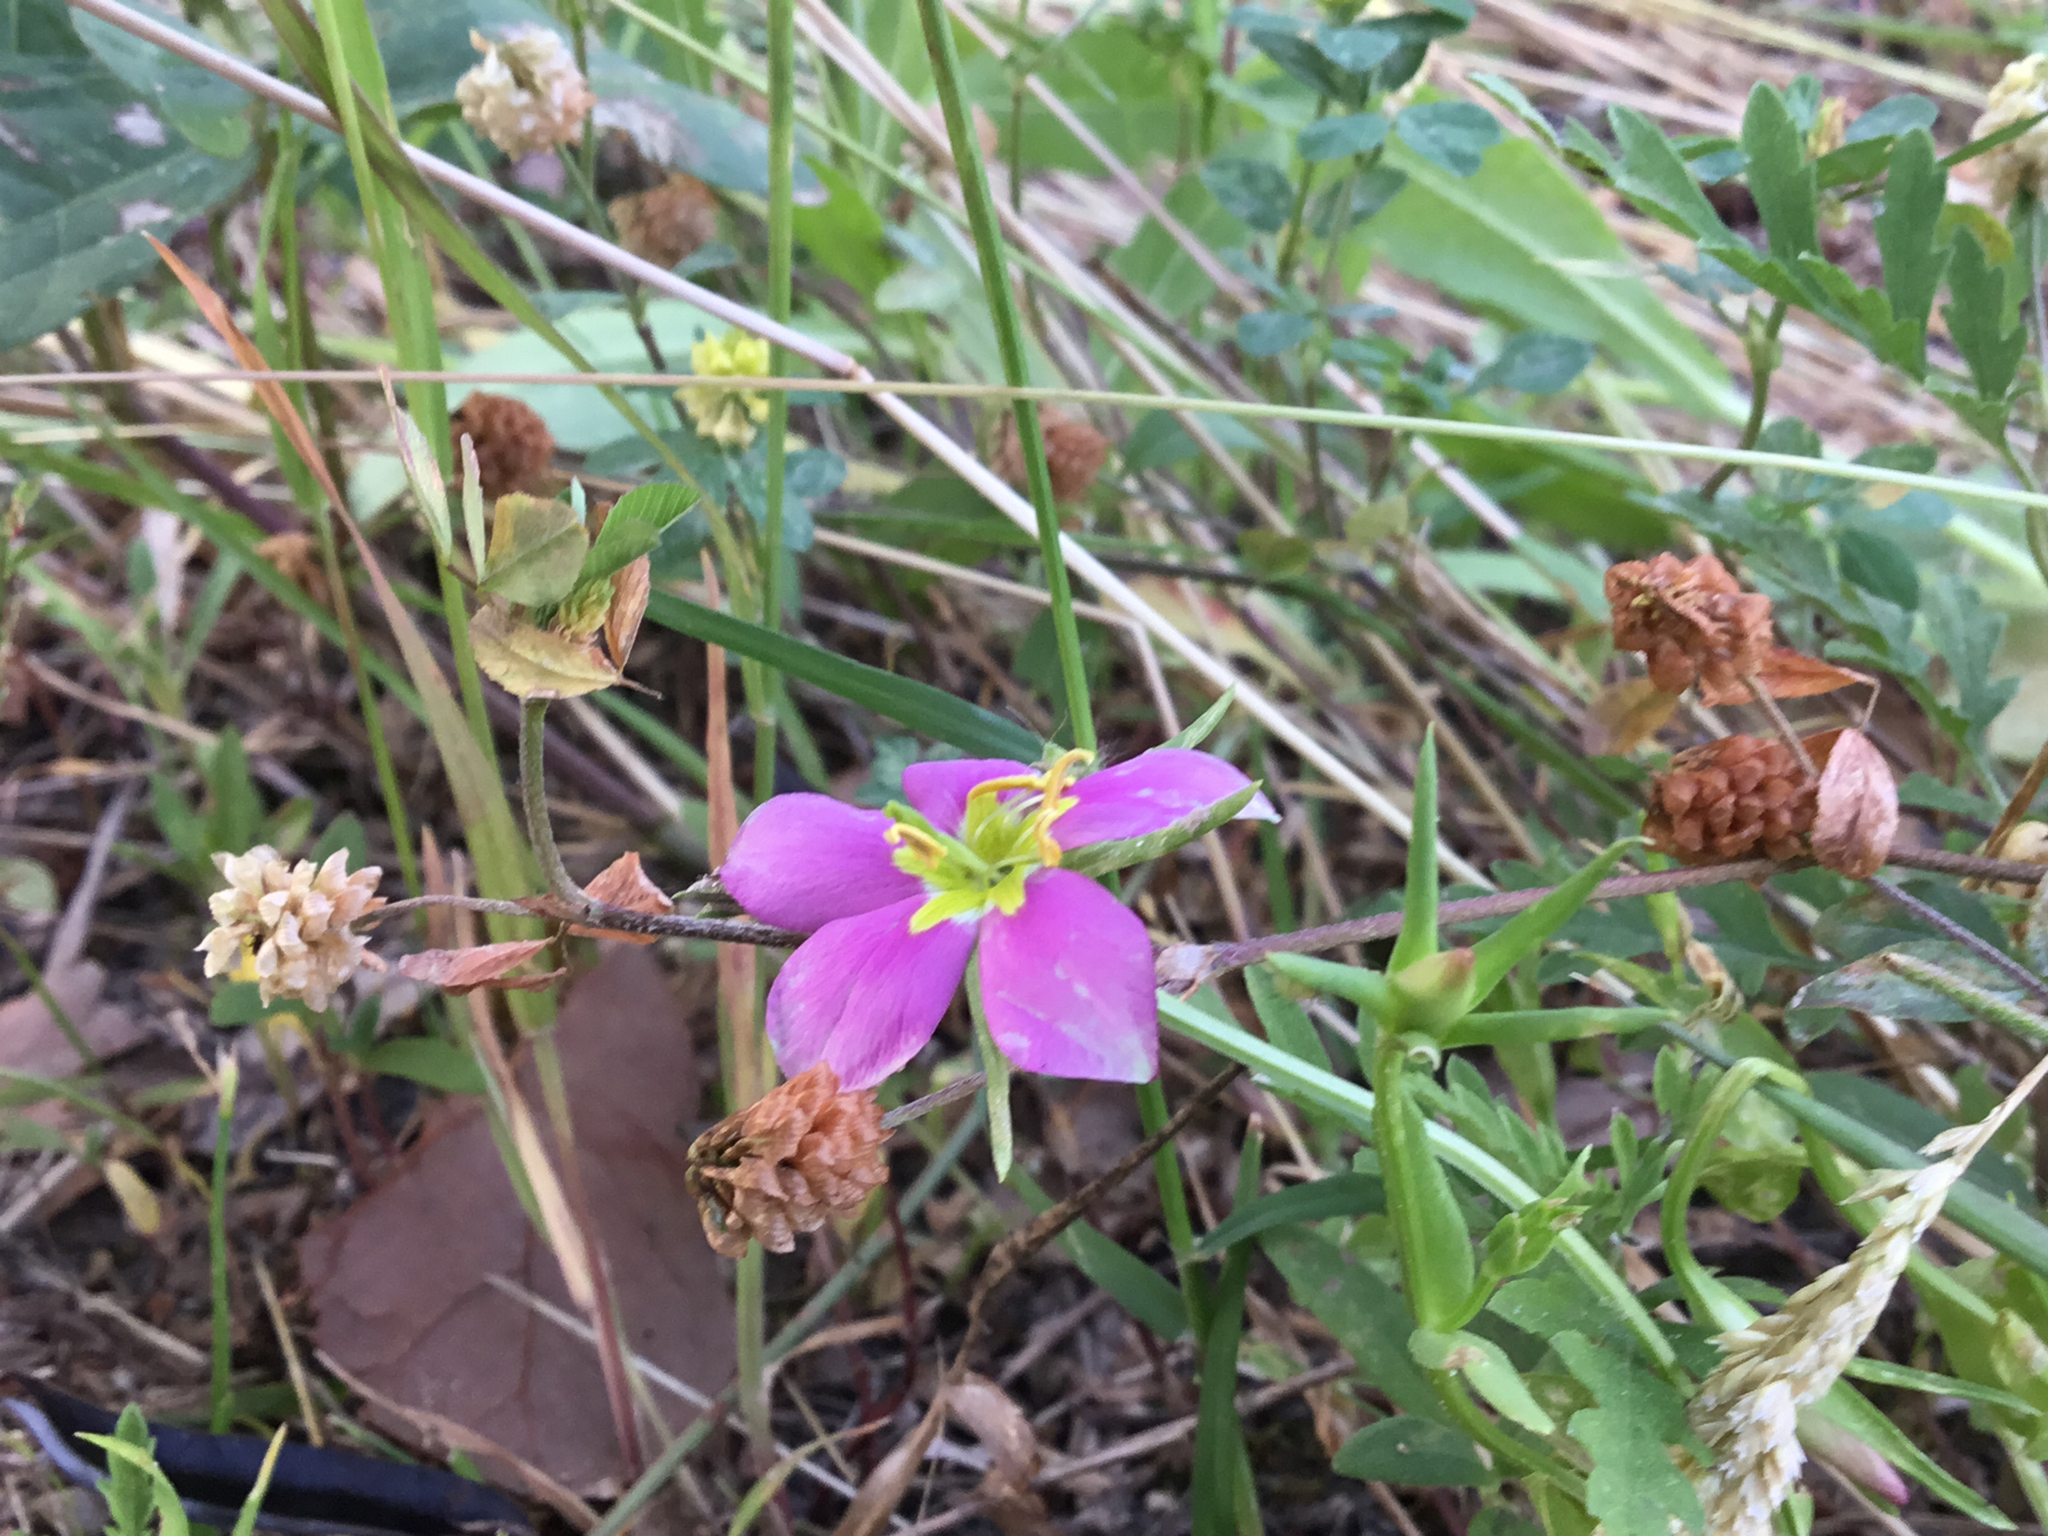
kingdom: Plantae
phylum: Tracheophyta
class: Magnoliopsida
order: Gentianales
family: Gentianaceae
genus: Sabatia
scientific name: Sabatia campestris
